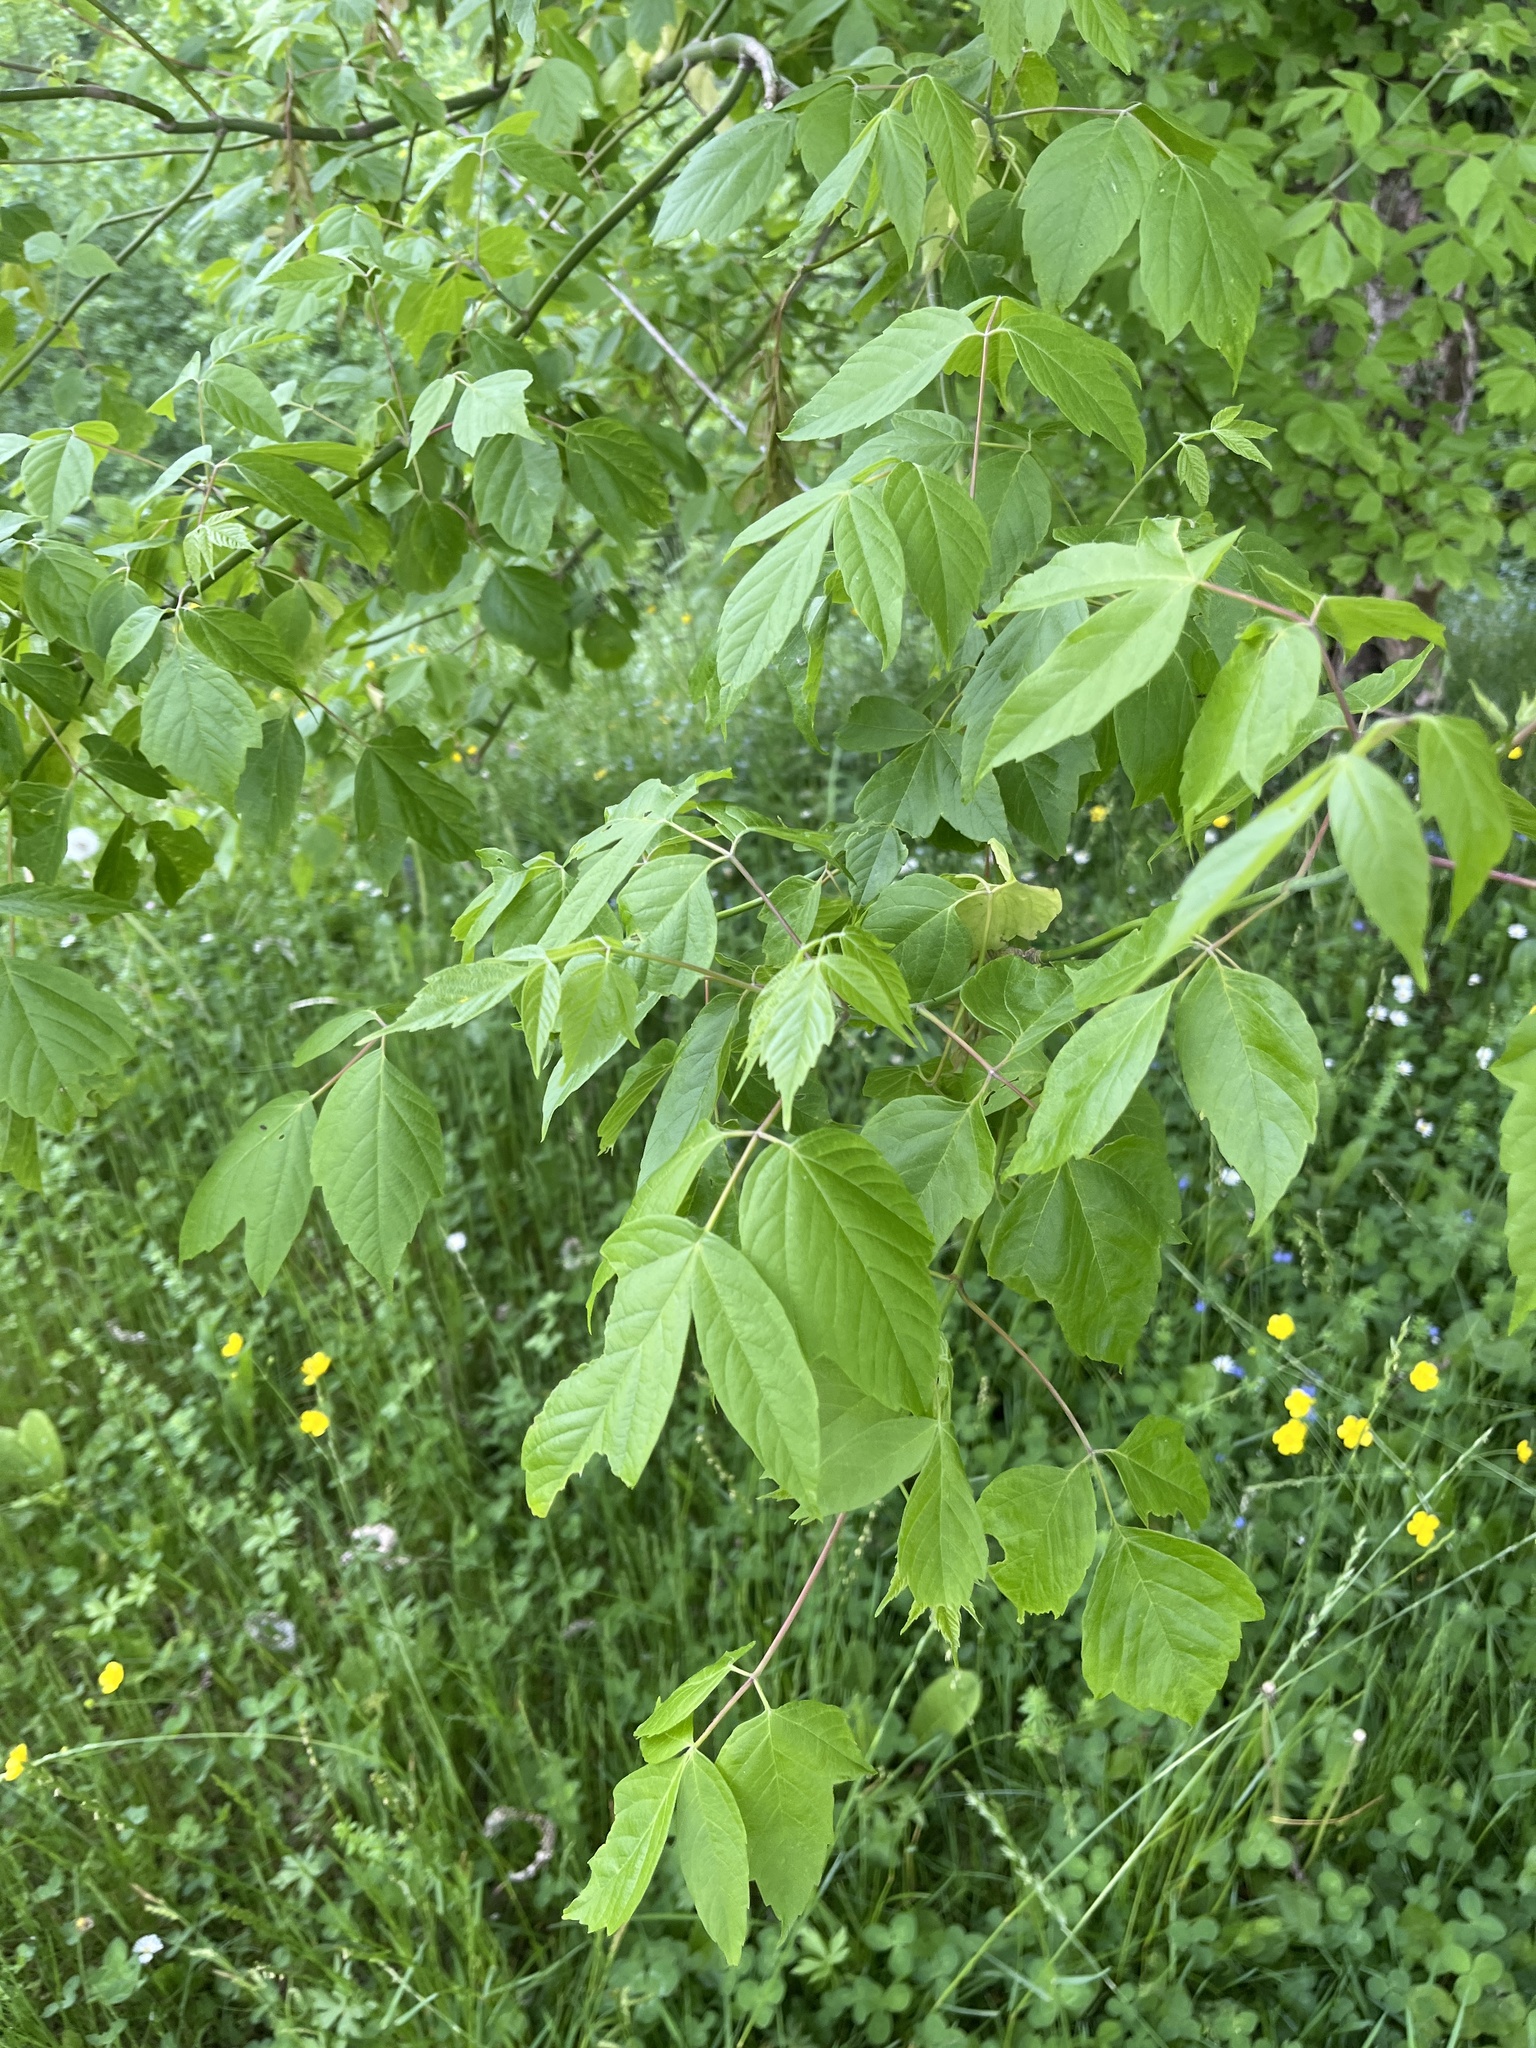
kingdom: Plantae
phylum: Tracheophyta
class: Magnoliopsida
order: Sapindales
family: Sapindaceae
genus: Acer
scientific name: Acer negundo
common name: Ashleaf maple
